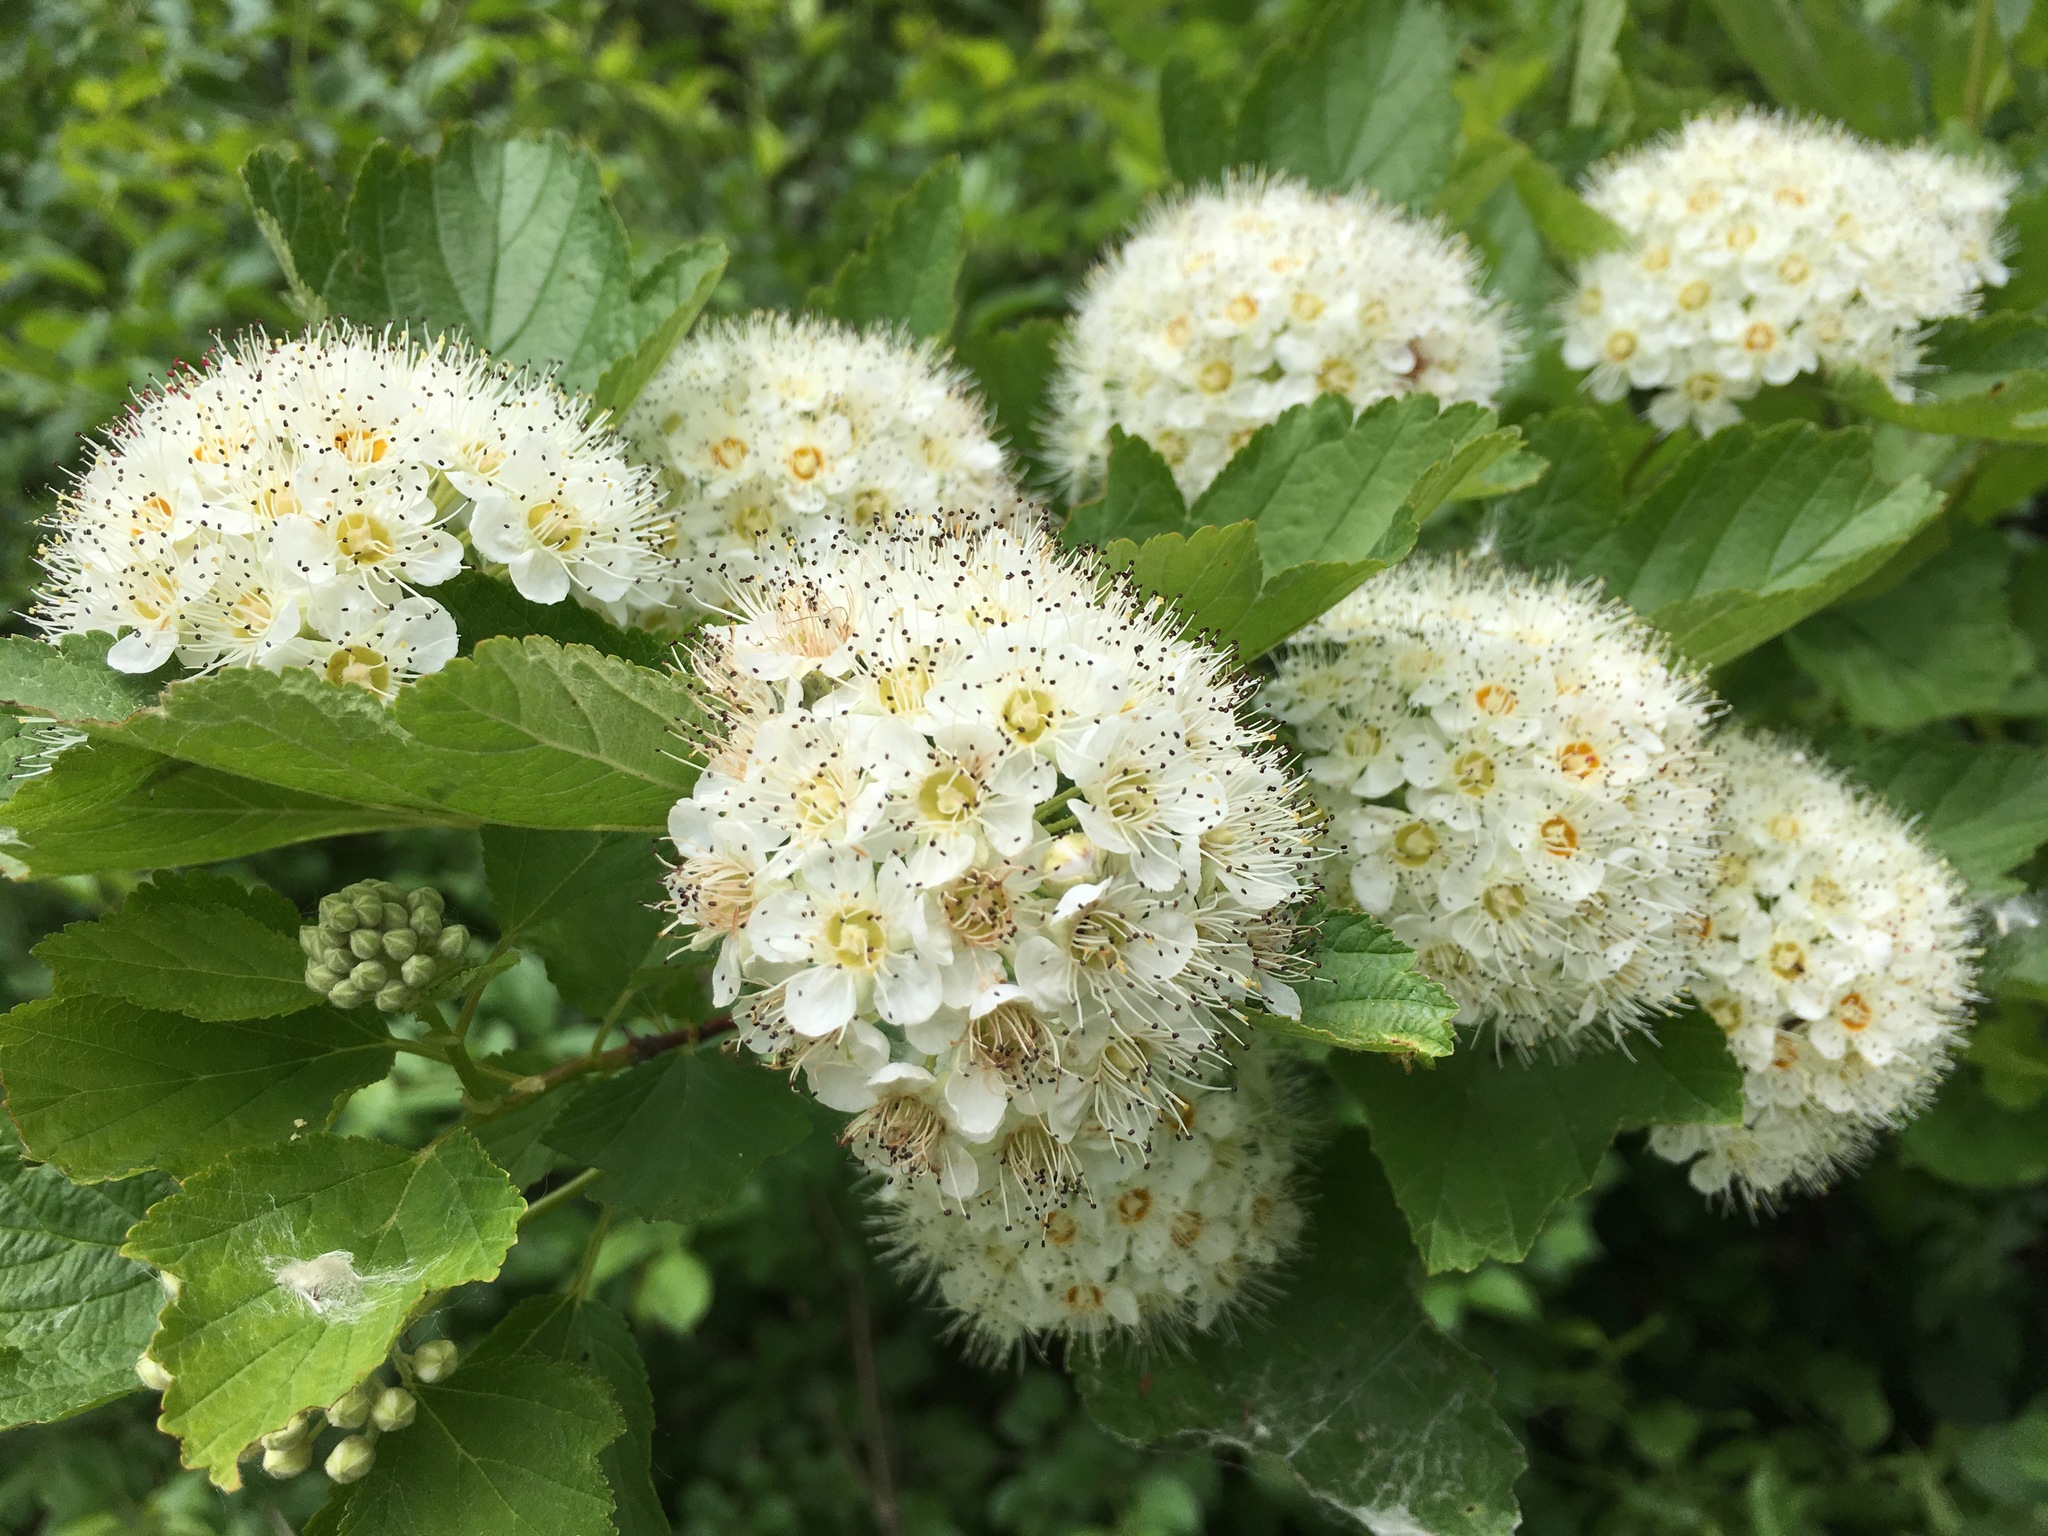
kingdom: Plantae
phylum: Tracheophyta
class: Magnoliopsida
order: Rosales
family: Rosaceae
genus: Physocarpus
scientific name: Physocarpus intermedius
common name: Midwestern ninebark
